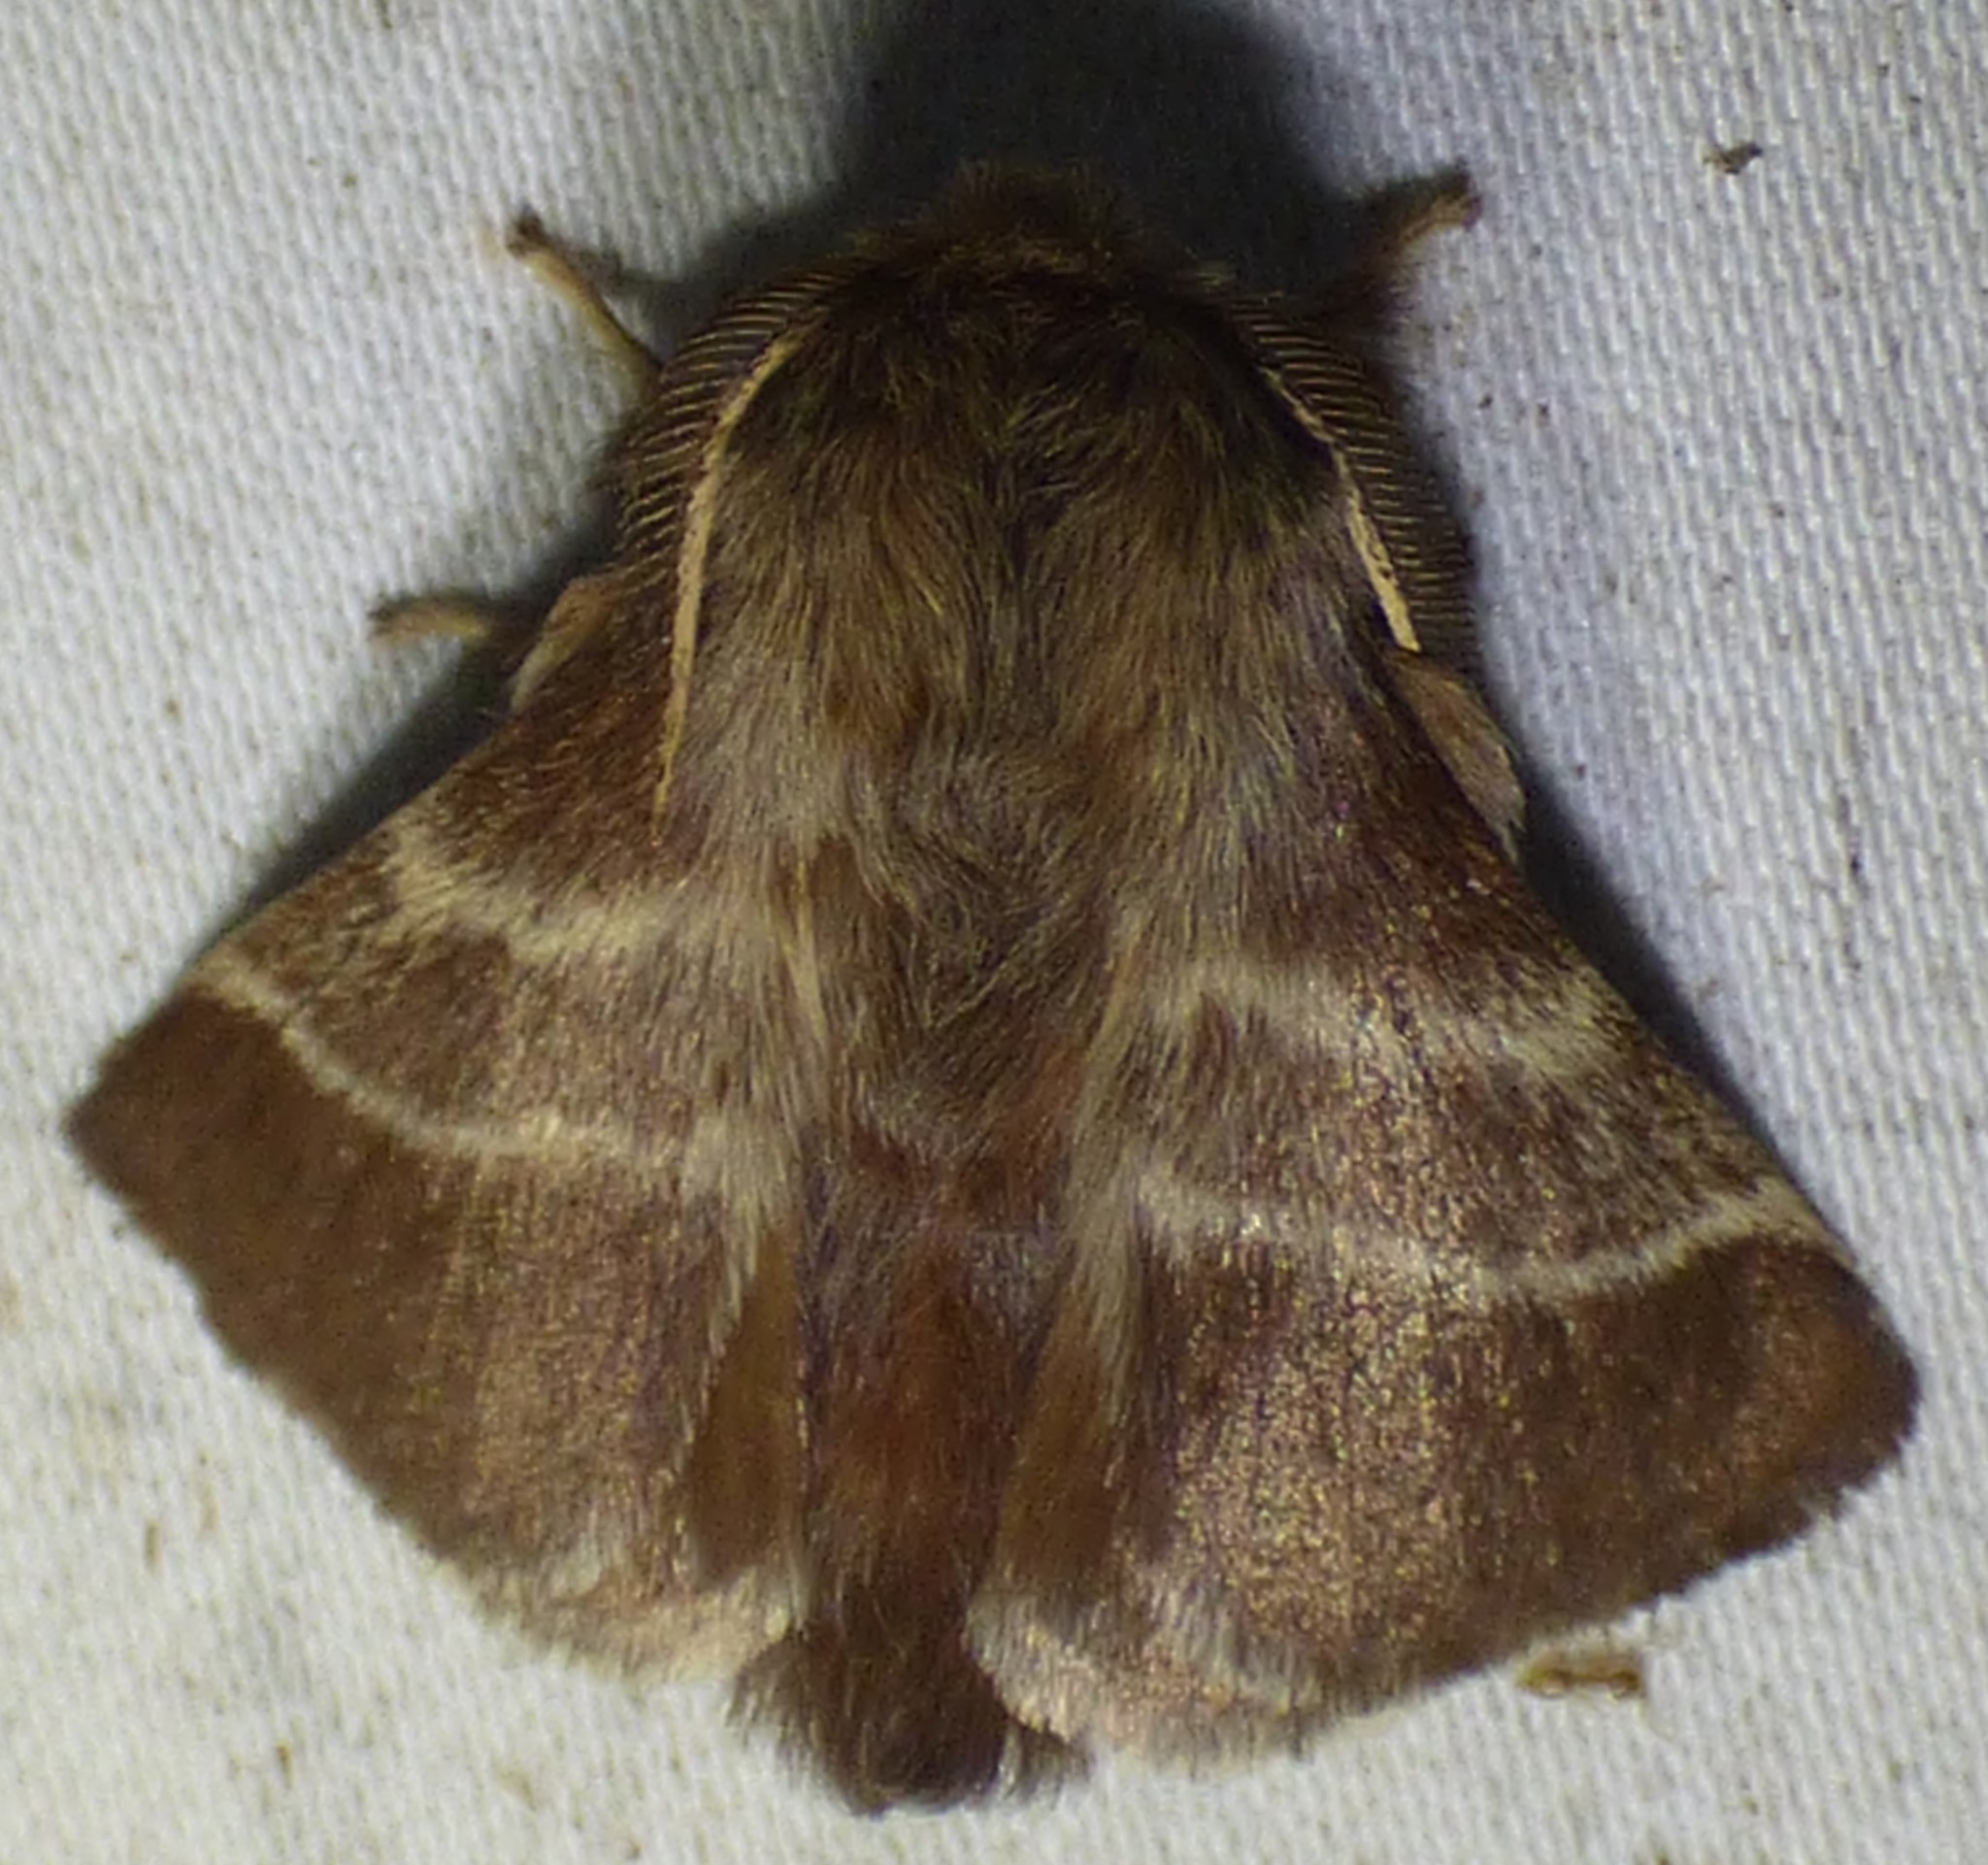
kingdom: Animalia
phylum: Arthropoda
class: Insecta
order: Lepidoptera
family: Lasiocampidae
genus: Malacosoma
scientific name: Malacosoma americana
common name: Eastern tent caterpillar moth
